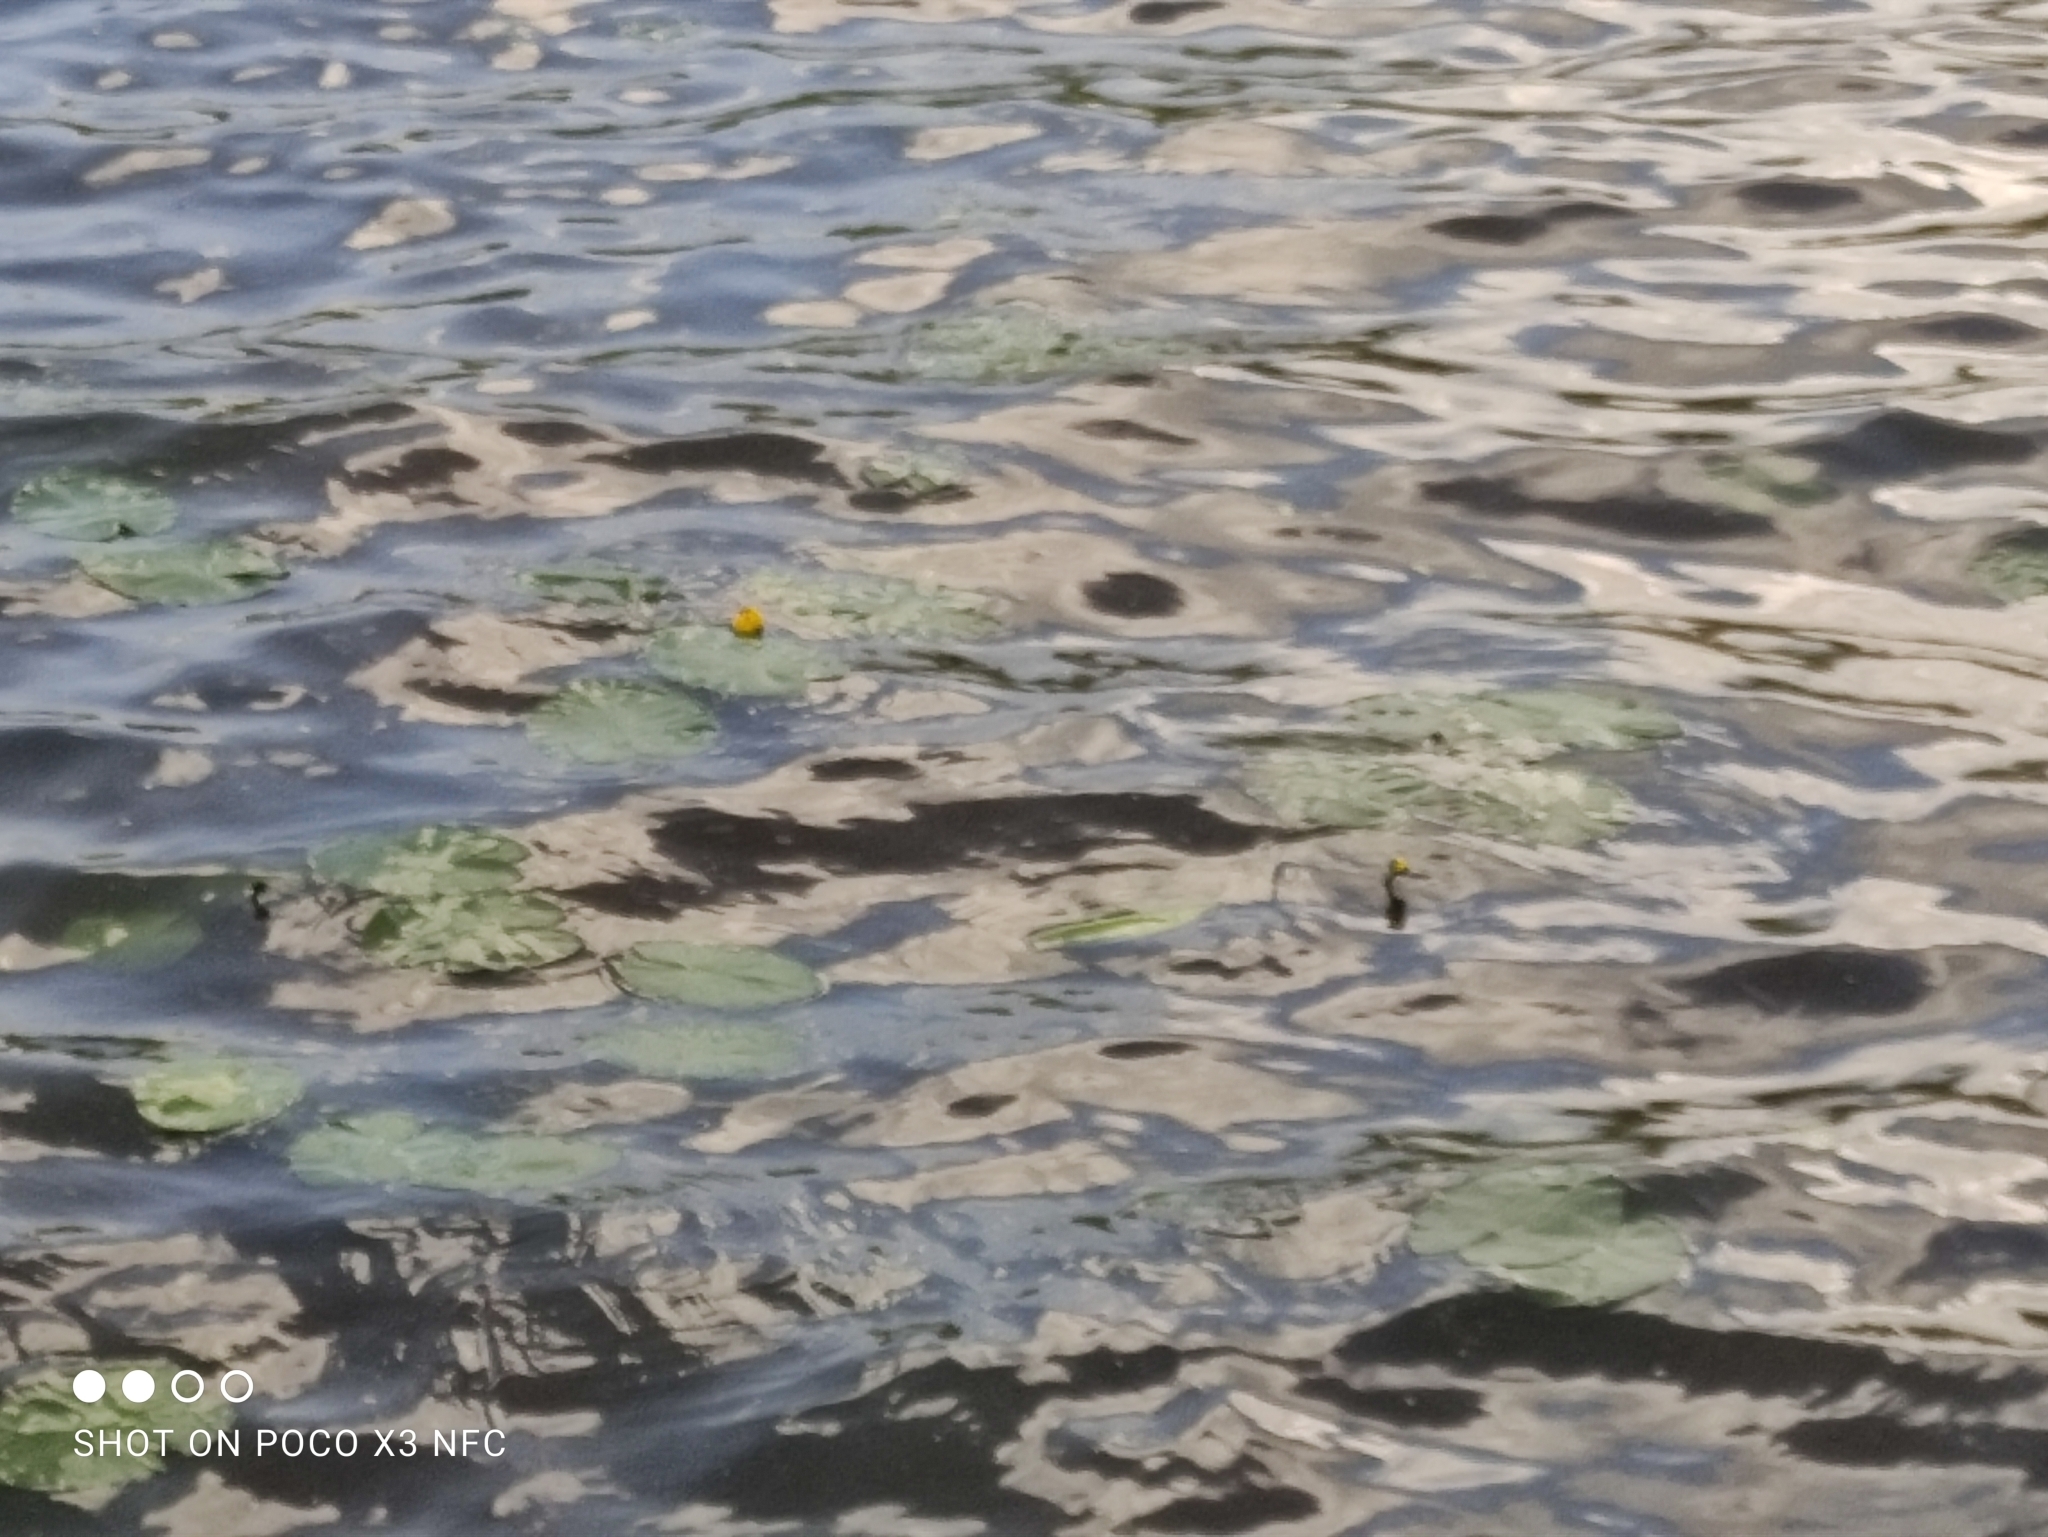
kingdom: Plantae
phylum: Tracheophyta
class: Magnoliopsida
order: Nymphaeales
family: Nymphaeaceae
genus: Nuphar
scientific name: Nuphar lutea
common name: Yellow water-lily
